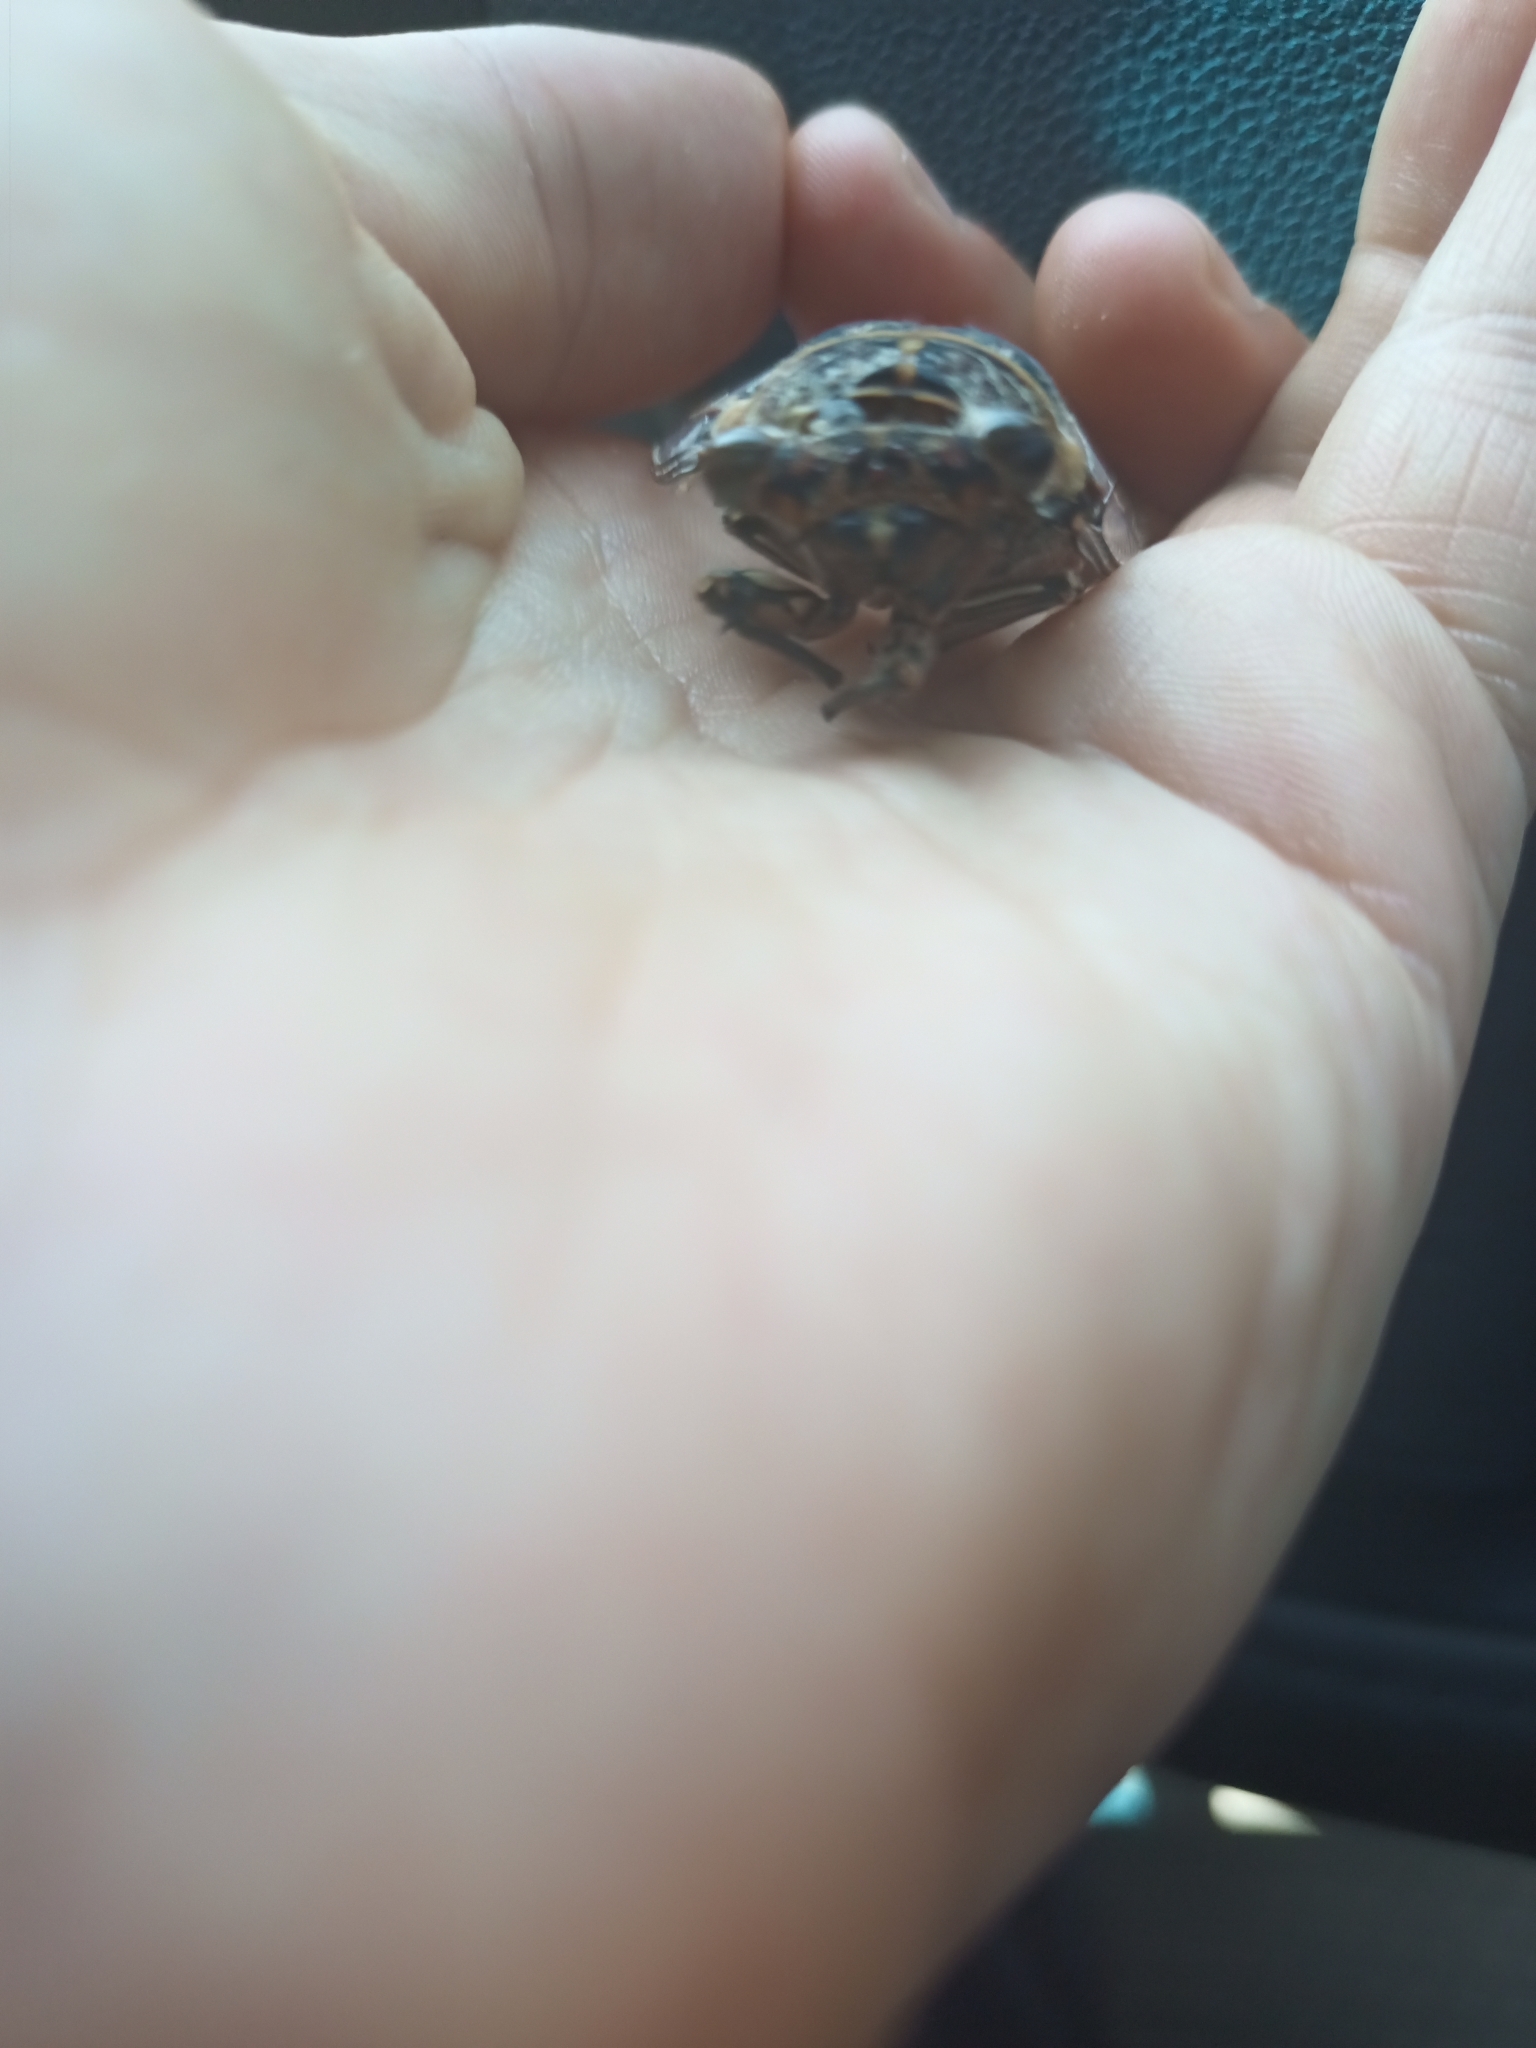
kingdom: Animalia
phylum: Arthropoda
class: Insecta
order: Hemiptera
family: Cicadidae
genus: Henicopsaltria
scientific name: Henicopsaltria eydouxii
